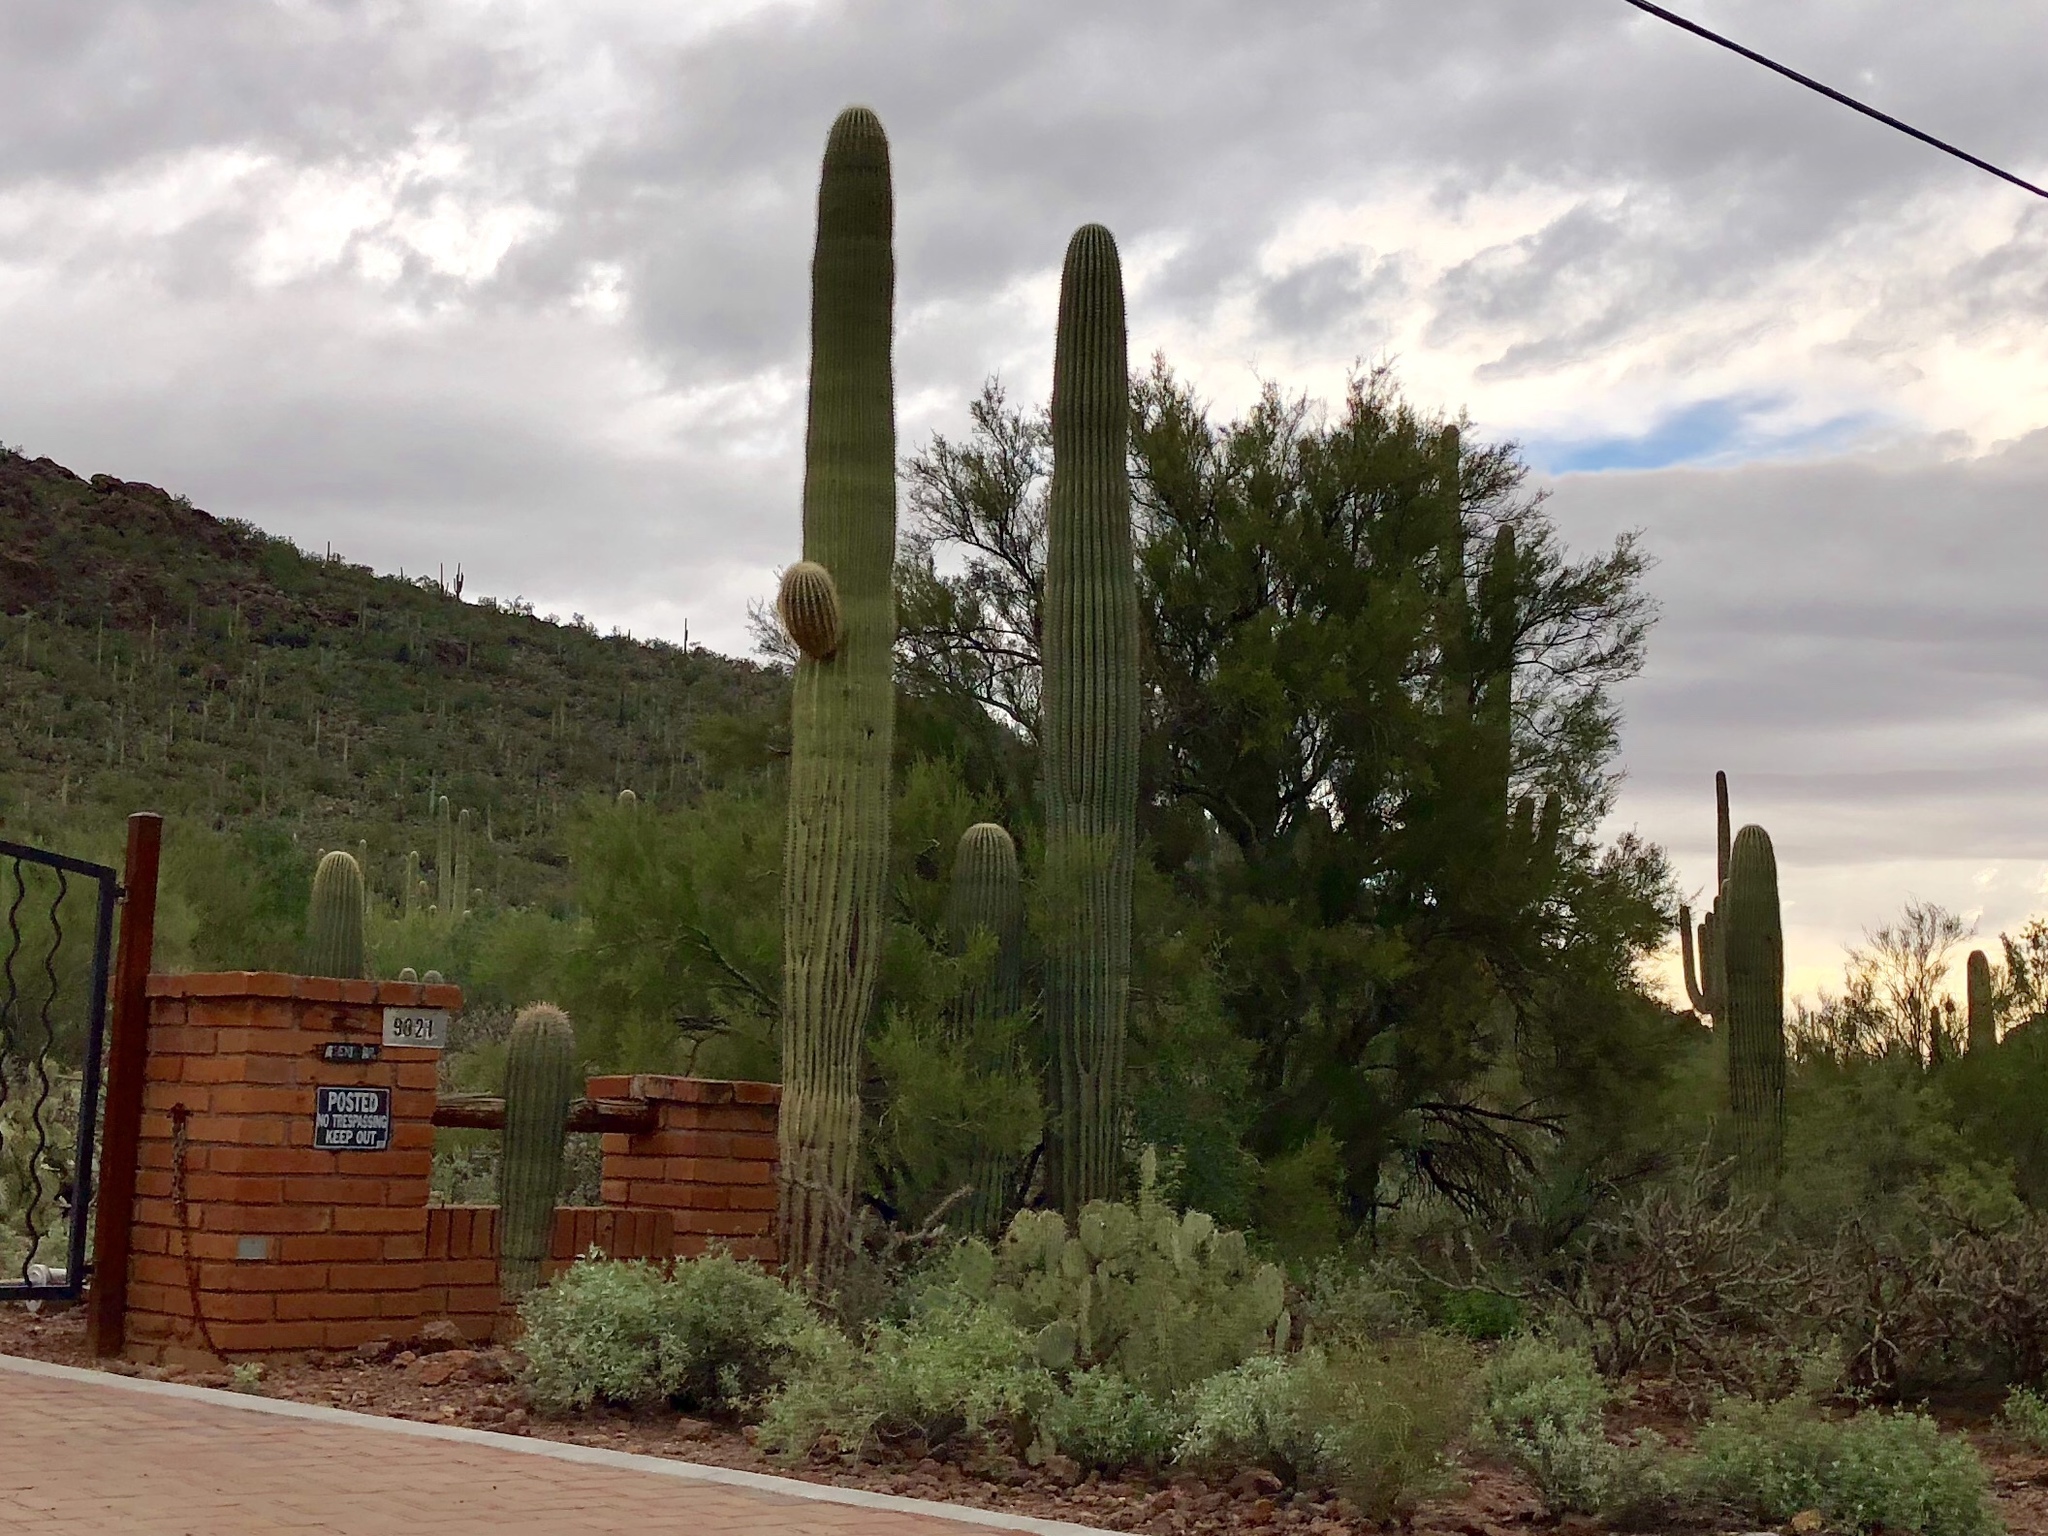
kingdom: Plantae
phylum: Tracheophyta
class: Magnoliopsida
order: Caryophyllales
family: Cactaceae
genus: Carnegiea
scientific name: Carnegiea gigantea
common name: Saguaro
